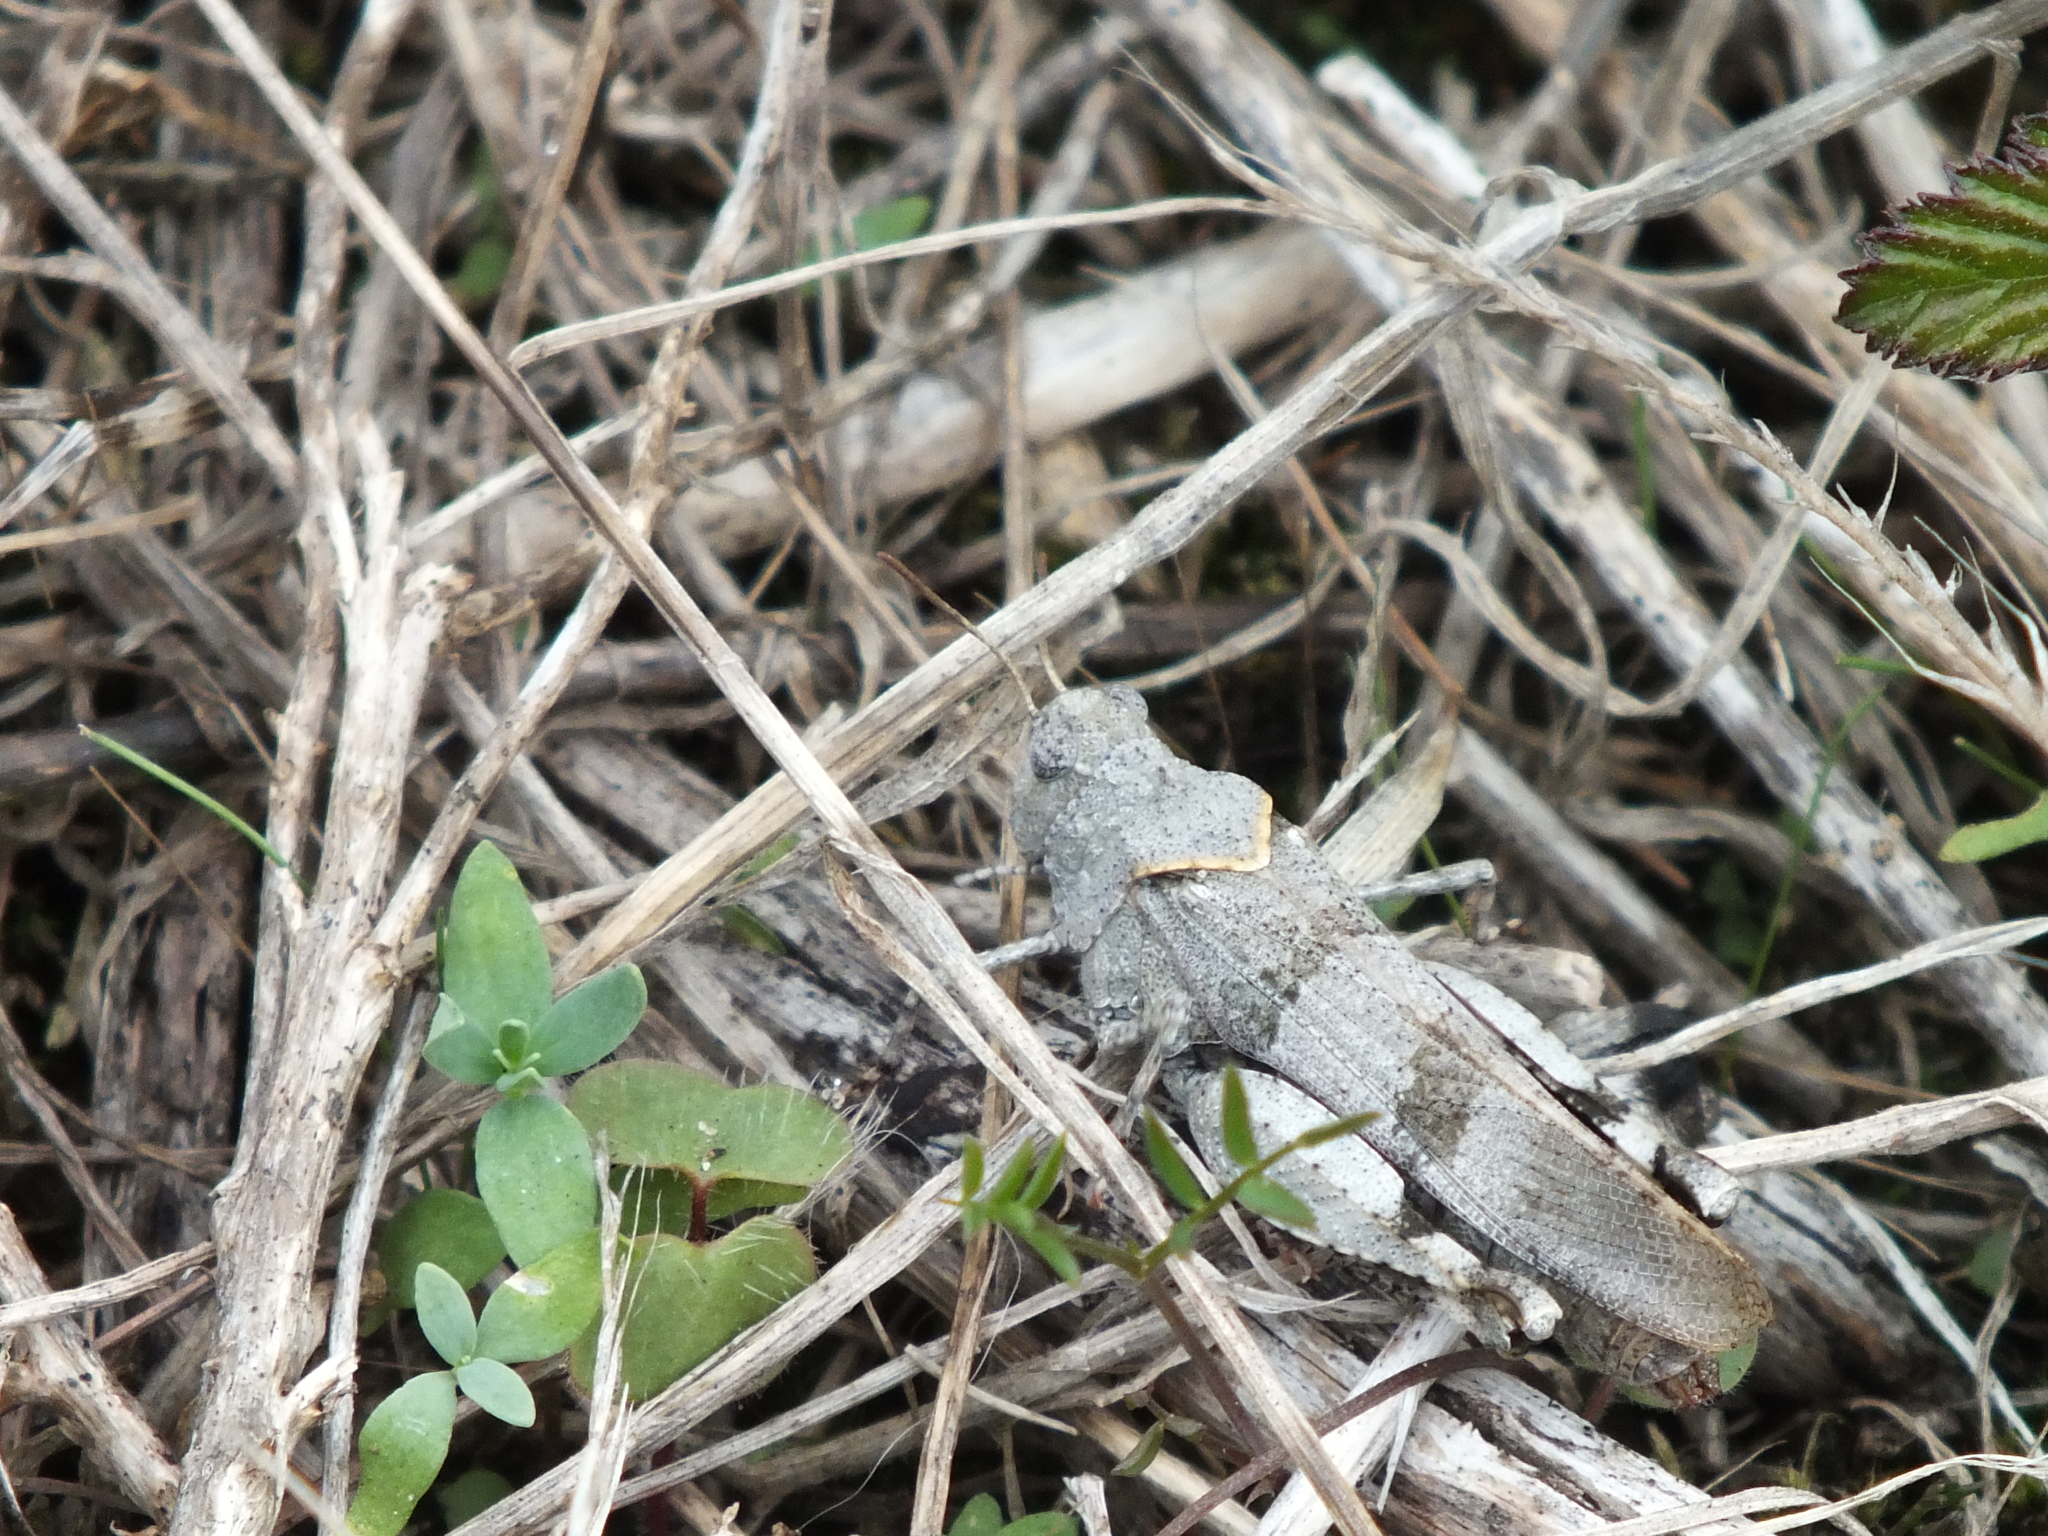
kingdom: Animalia
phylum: Arthropoda
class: Insecta
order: Orthoptera
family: Acrididae
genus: Oedipoda
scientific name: Oedipoda caerulescens
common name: Blue-winged grasshopper
